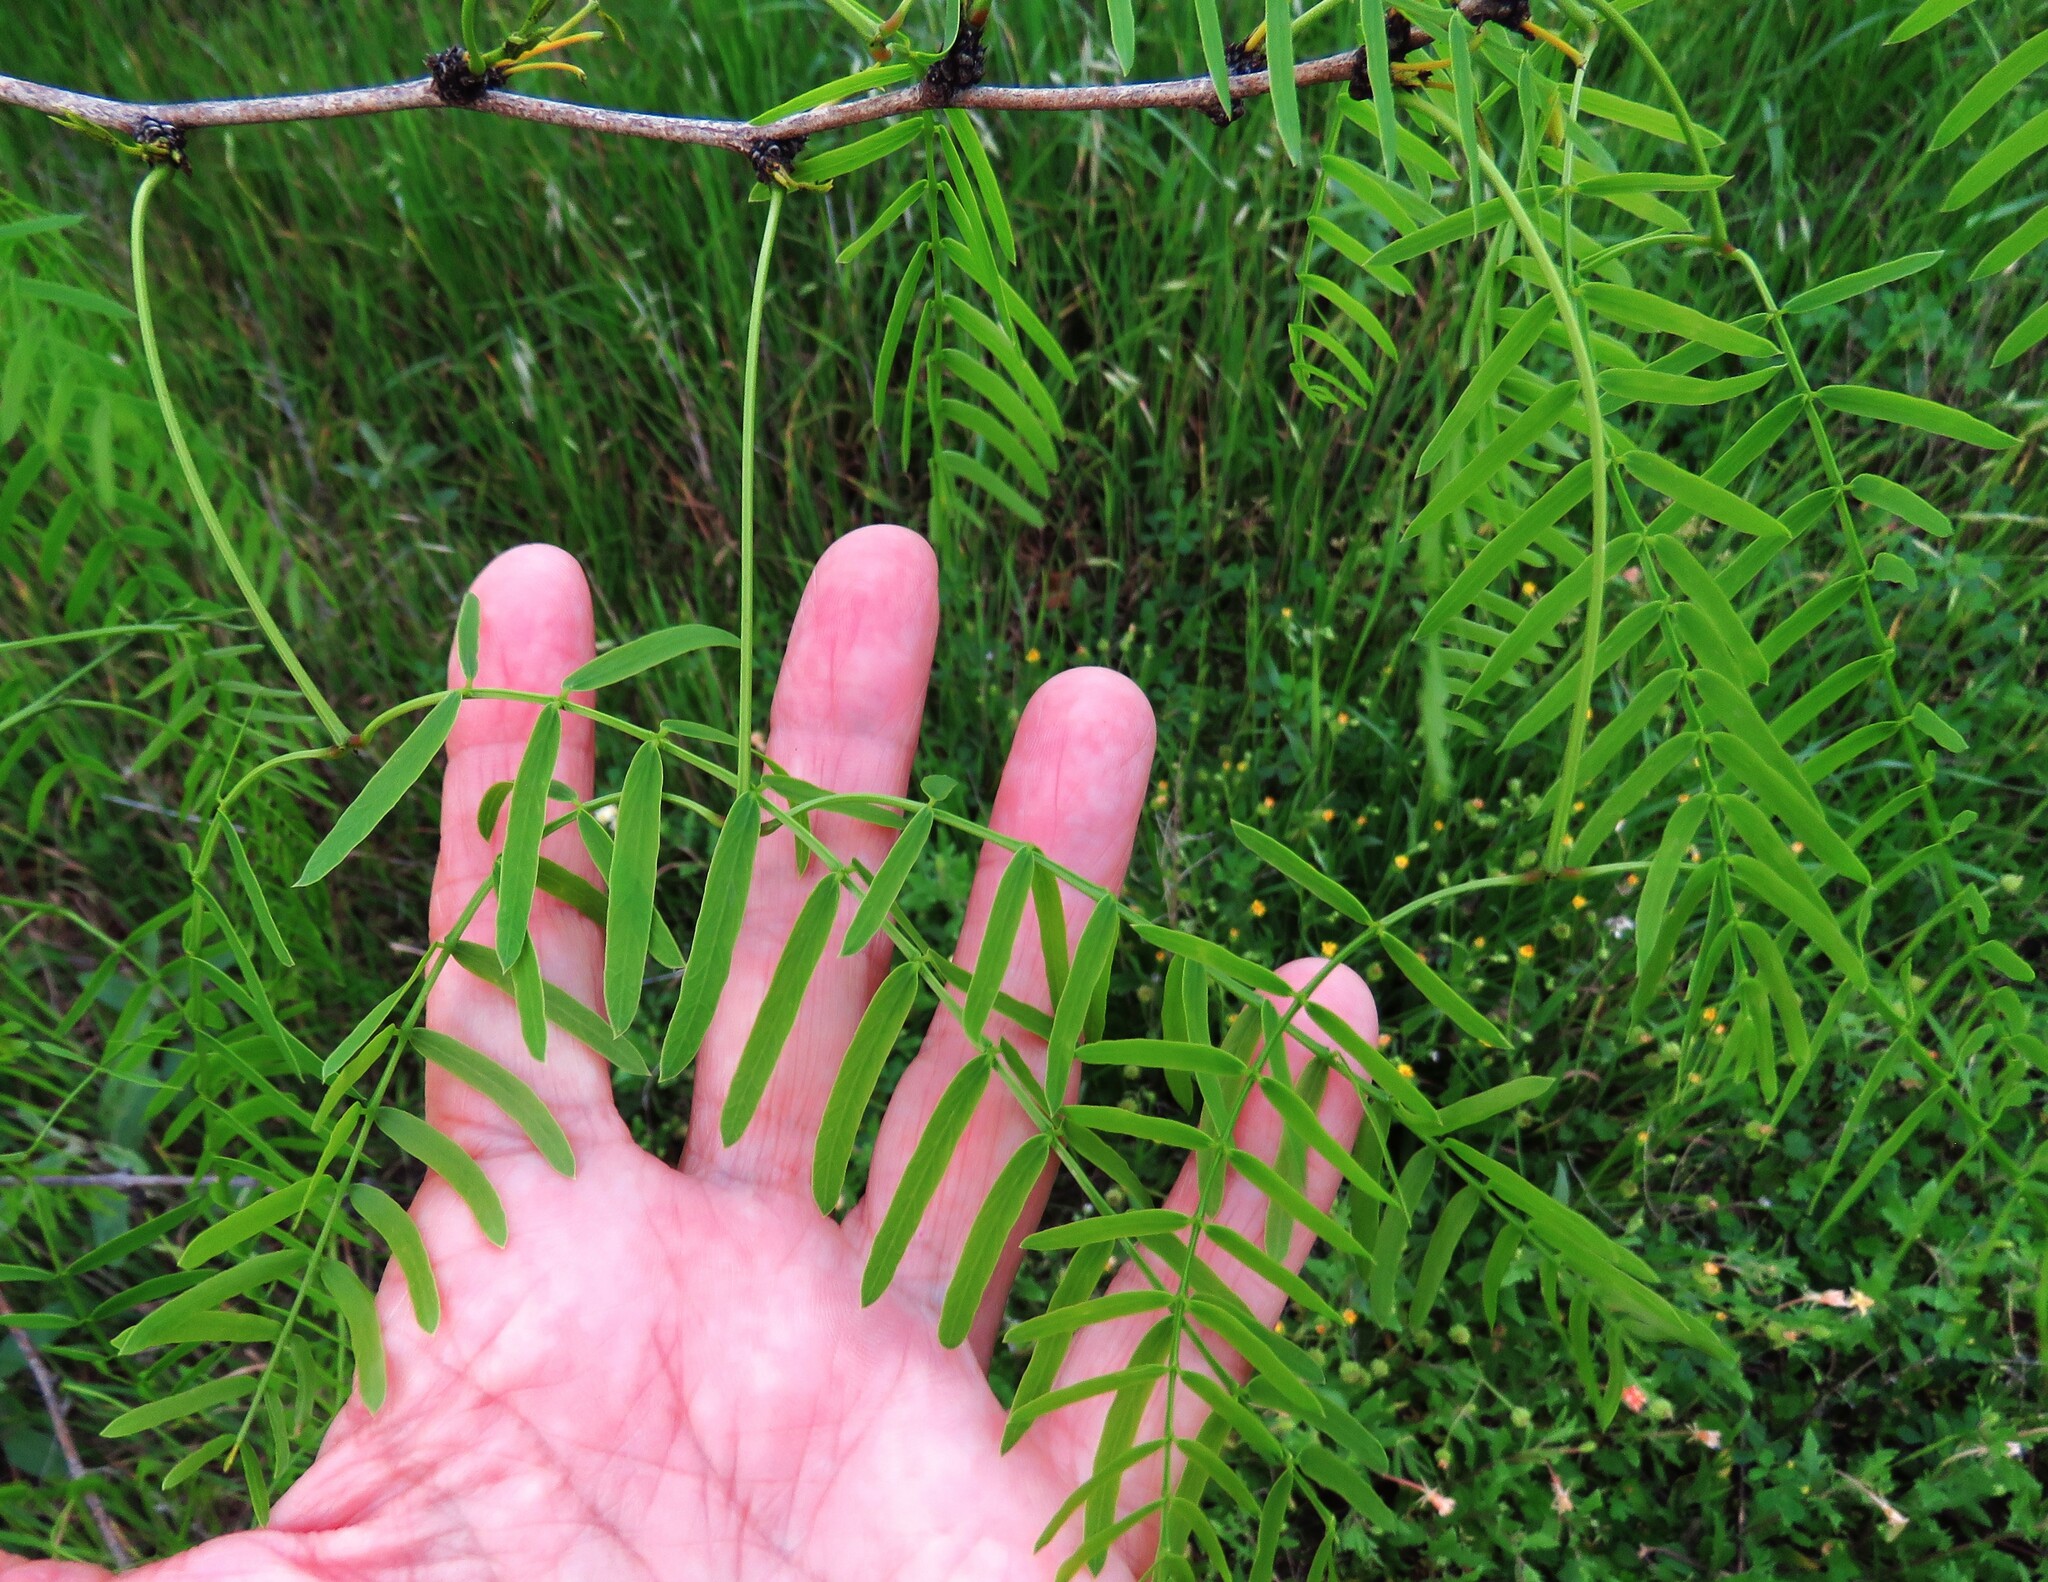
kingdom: Plantae
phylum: Tracheophyta
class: Magnoliopsida
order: Fabales
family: Fabaceae
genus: Prosopis
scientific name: Prosopis glandulosa
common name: Honey mesquite
